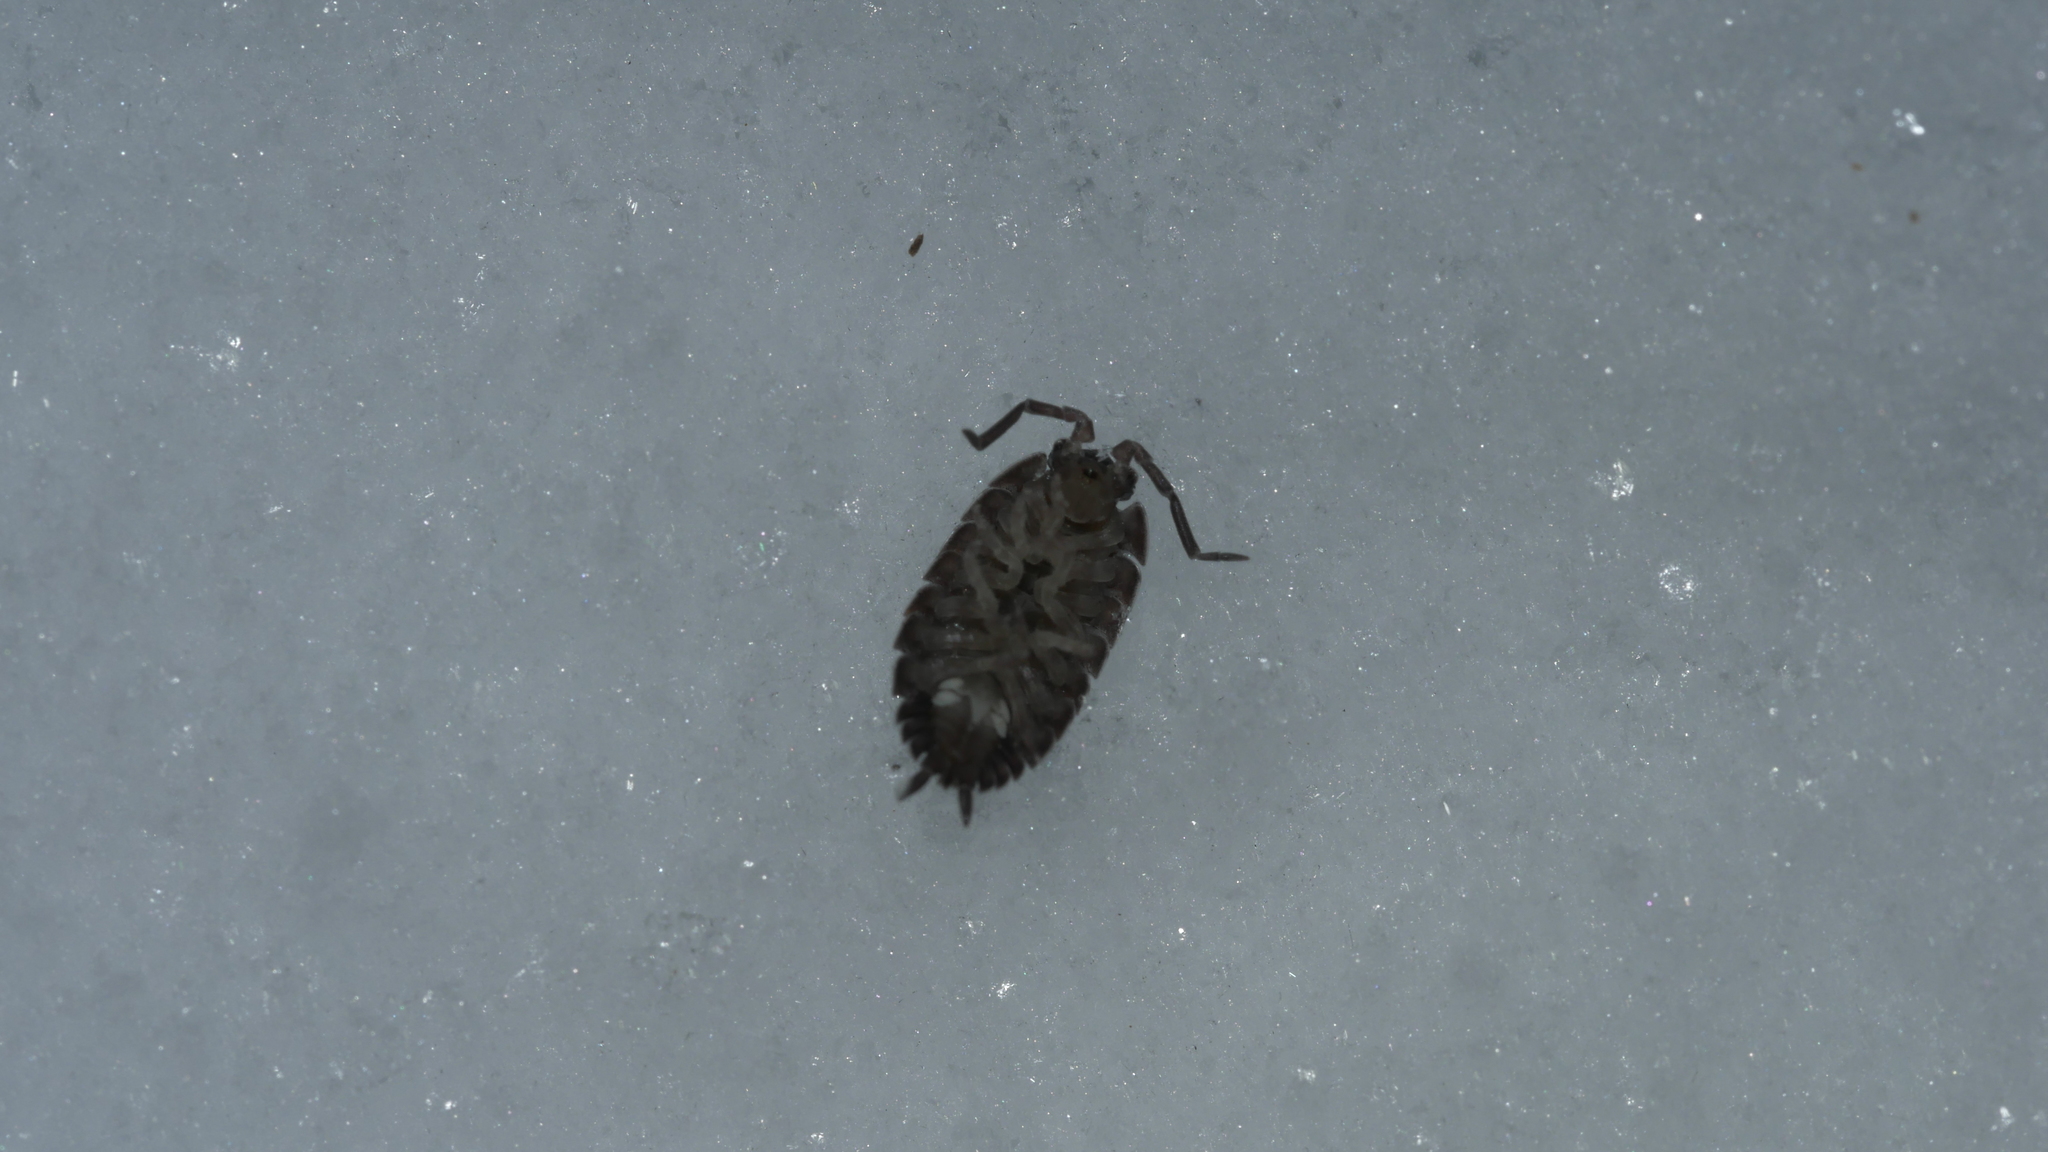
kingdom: Animalia
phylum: Arthropoda
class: Malacostraca
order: Isopoda
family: Porcellionidae
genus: Porcellio
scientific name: Porcellio scaber
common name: Common rough woodlouse
